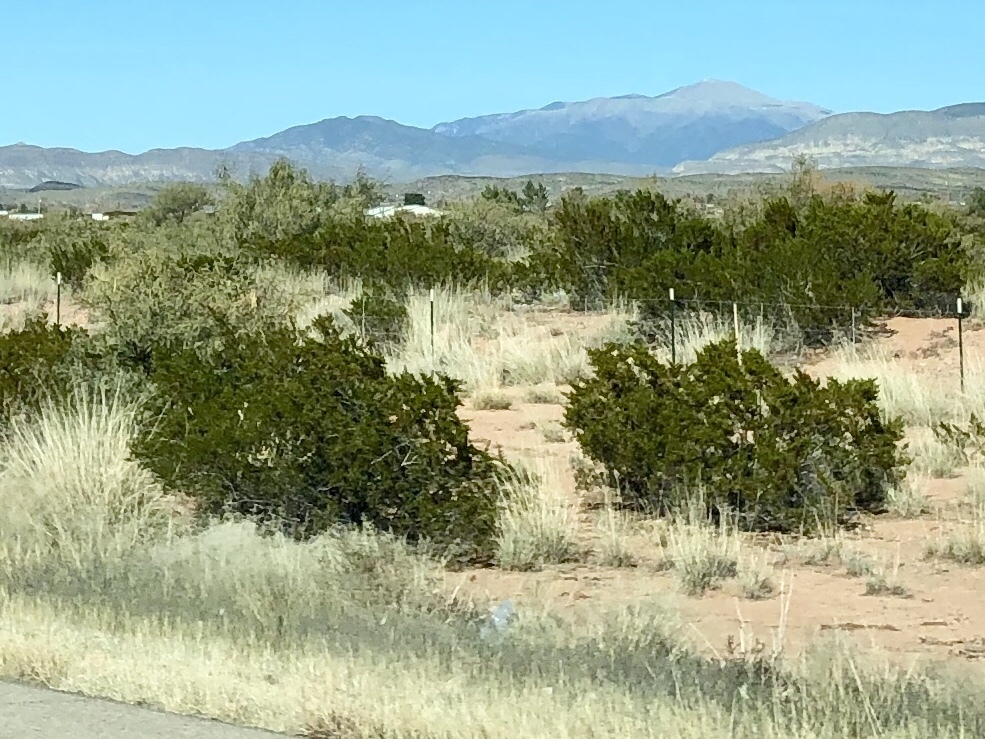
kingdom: Plantae
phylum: Tracheophyta
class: Magnoliopsida
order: Zygophyllales
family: Zygophyllaceae
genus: Larrea
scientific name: Larrea tridentata
